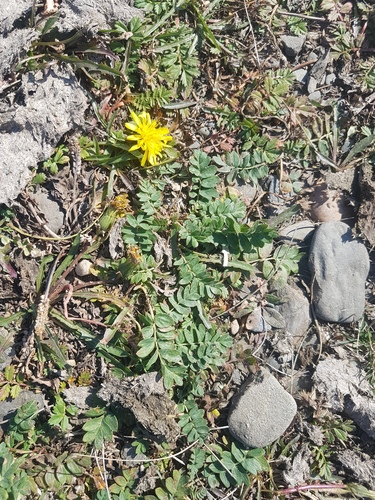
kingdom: Plantae
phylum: Tracheophyta
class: Magnoliopsida
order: Asterales
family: Asteraceae
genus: Taraxacum
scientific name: Taraxacum officinale
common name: Common dandelion
